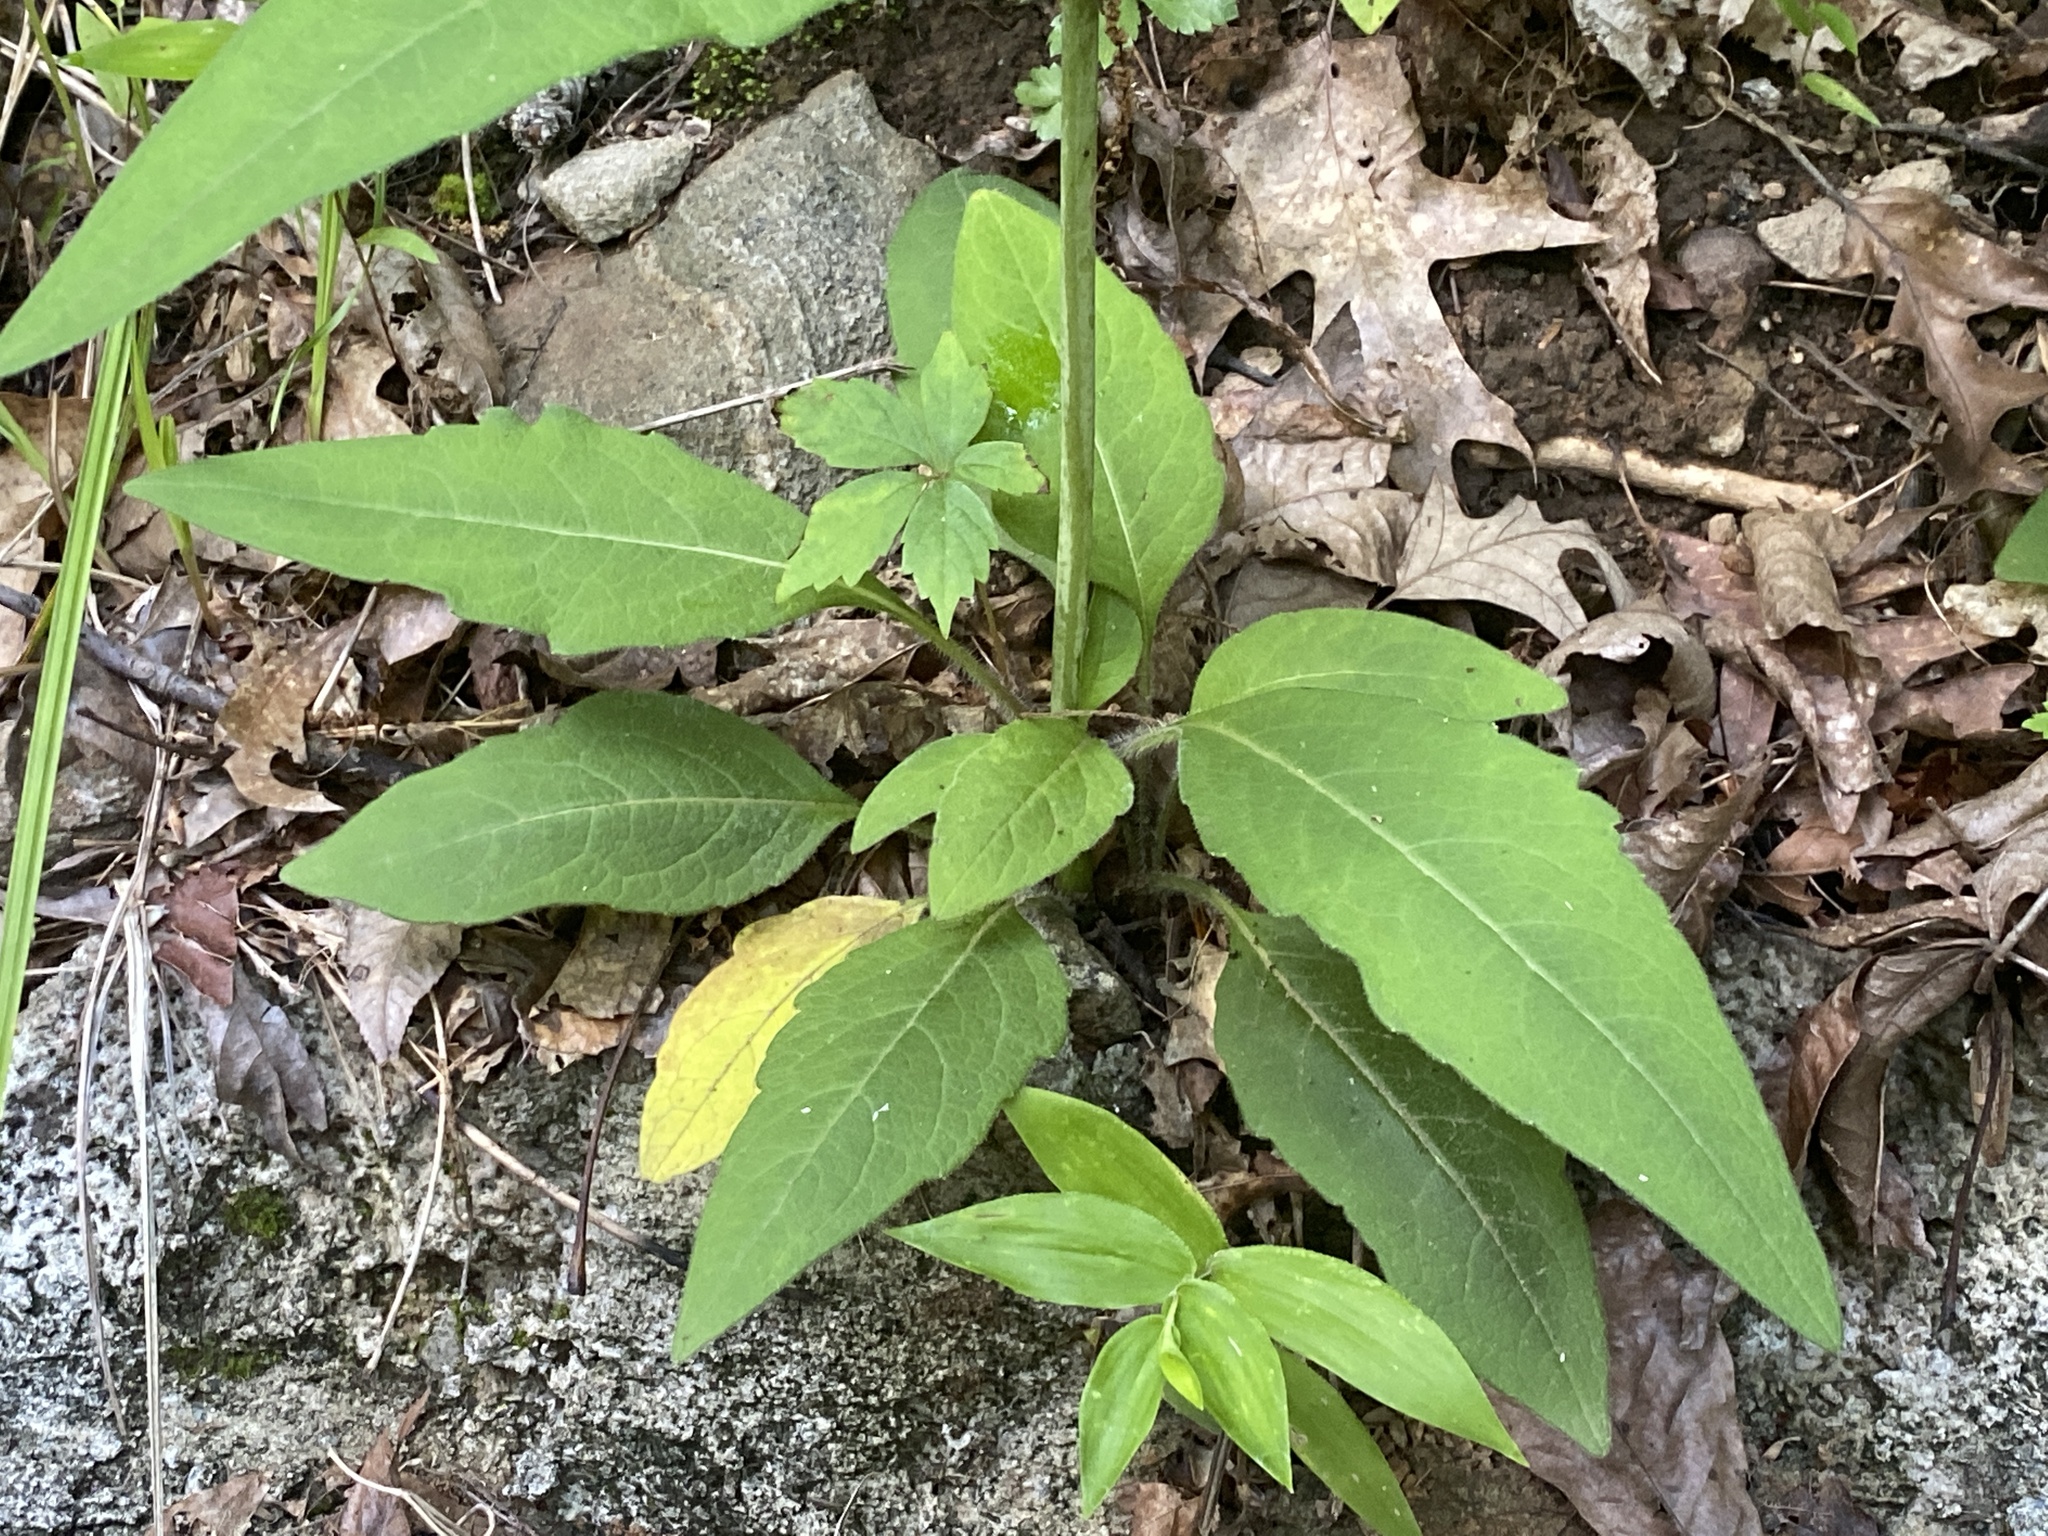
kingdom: Plantae
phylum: Tracheophyta
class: Magnoliopsida
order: Asterales
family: Asteraceae
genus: Silphium
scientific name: Silphium asteriscus
